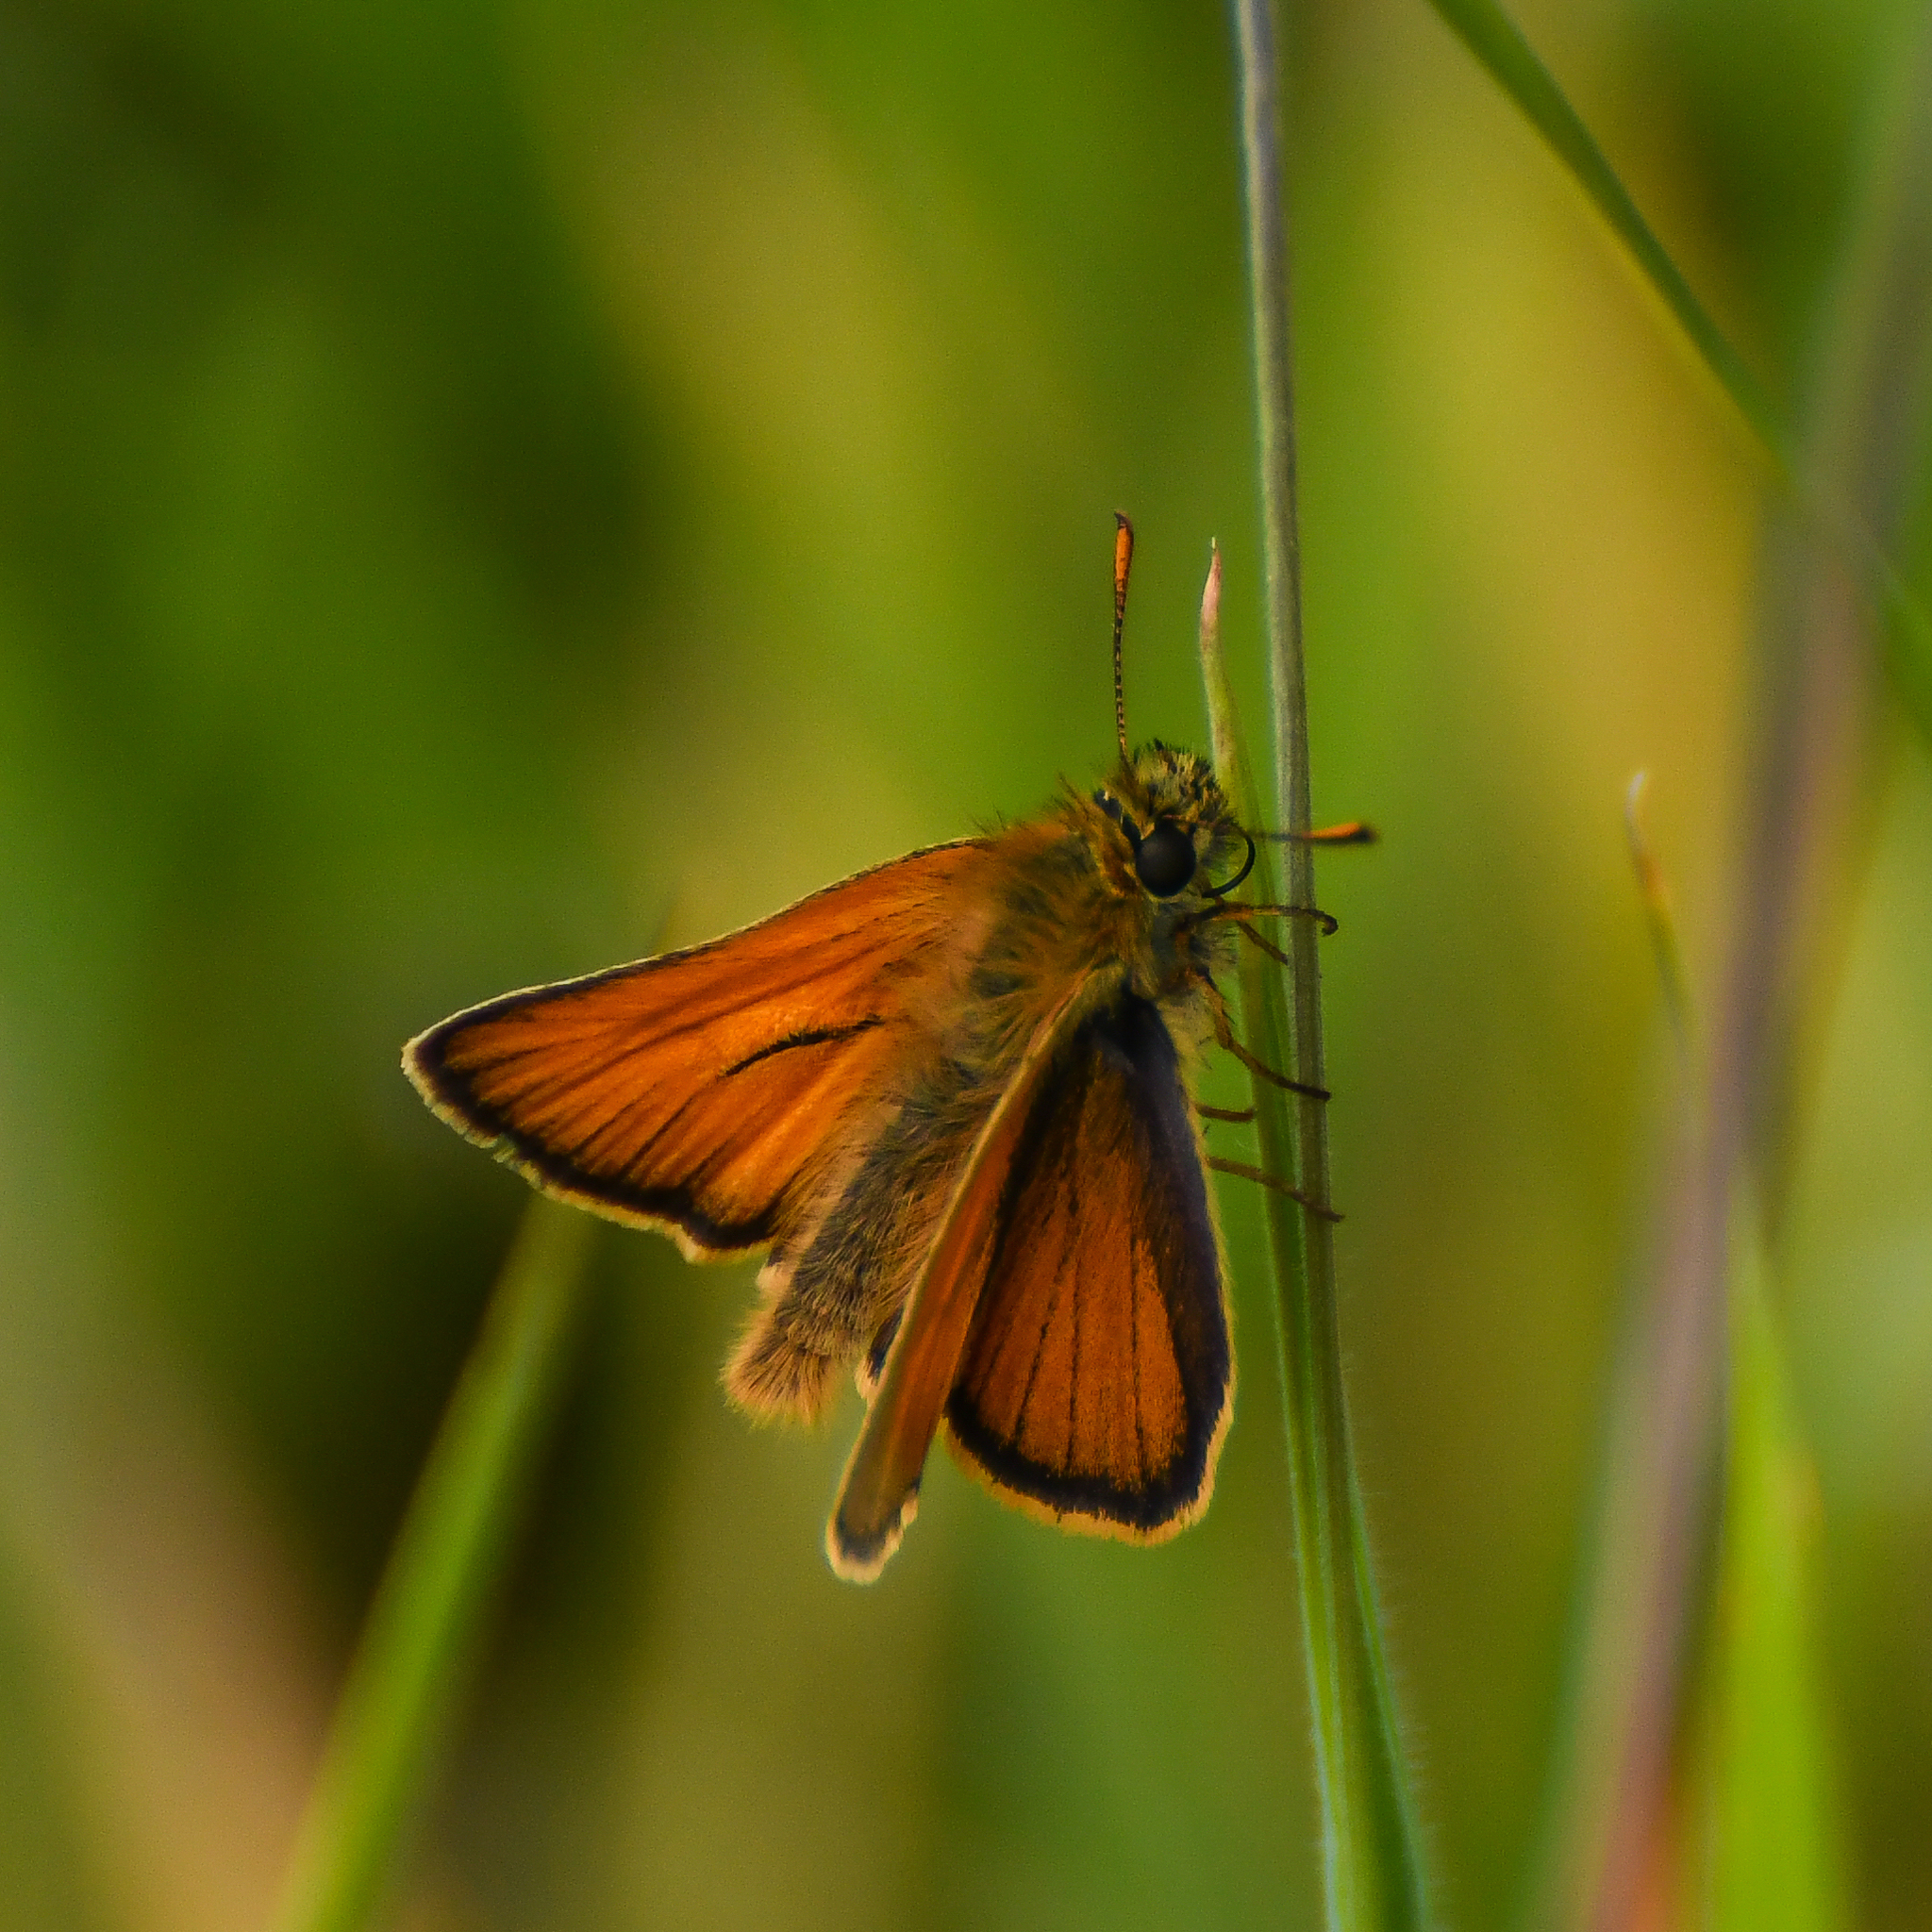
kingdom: Animalia
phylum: Arthropoda
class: Insecta
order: Lepidoptera
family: Hesperiidae
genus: Thymelicus
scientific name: Thymelicus sylvestris
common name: Small skipper
